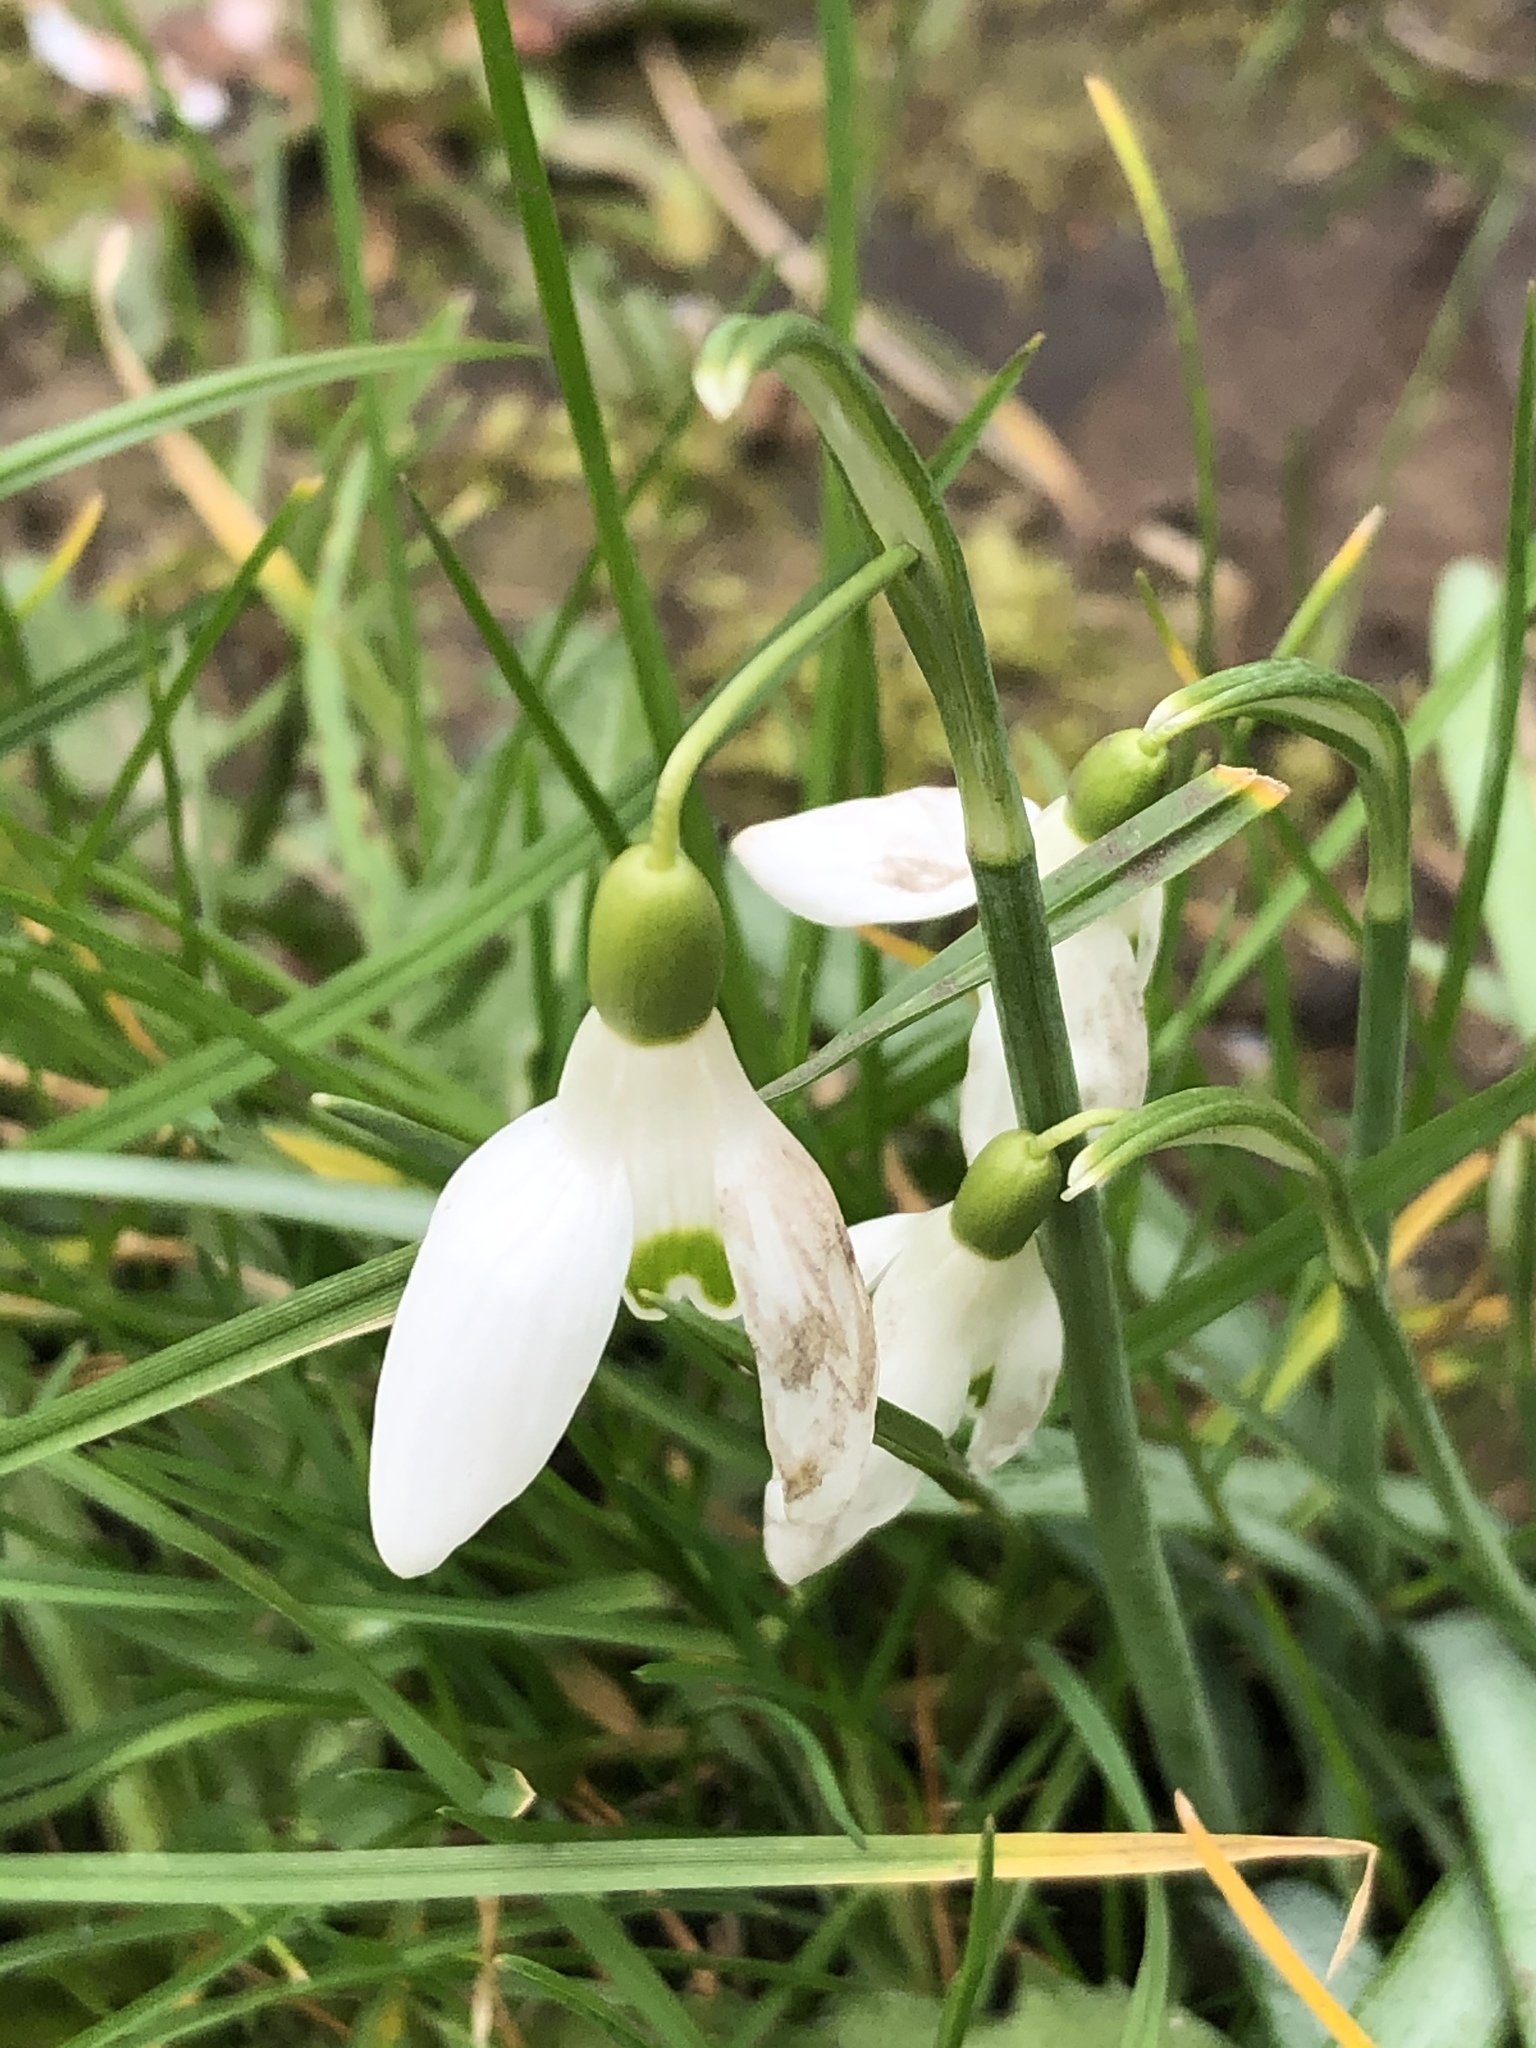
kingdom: Plantae
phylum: Tracheophyta
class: Liliopsida
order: Asparagales
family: Amaryllidaceae
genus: Galanthus
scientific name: Galanthus nivalis
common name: Snowdrop
